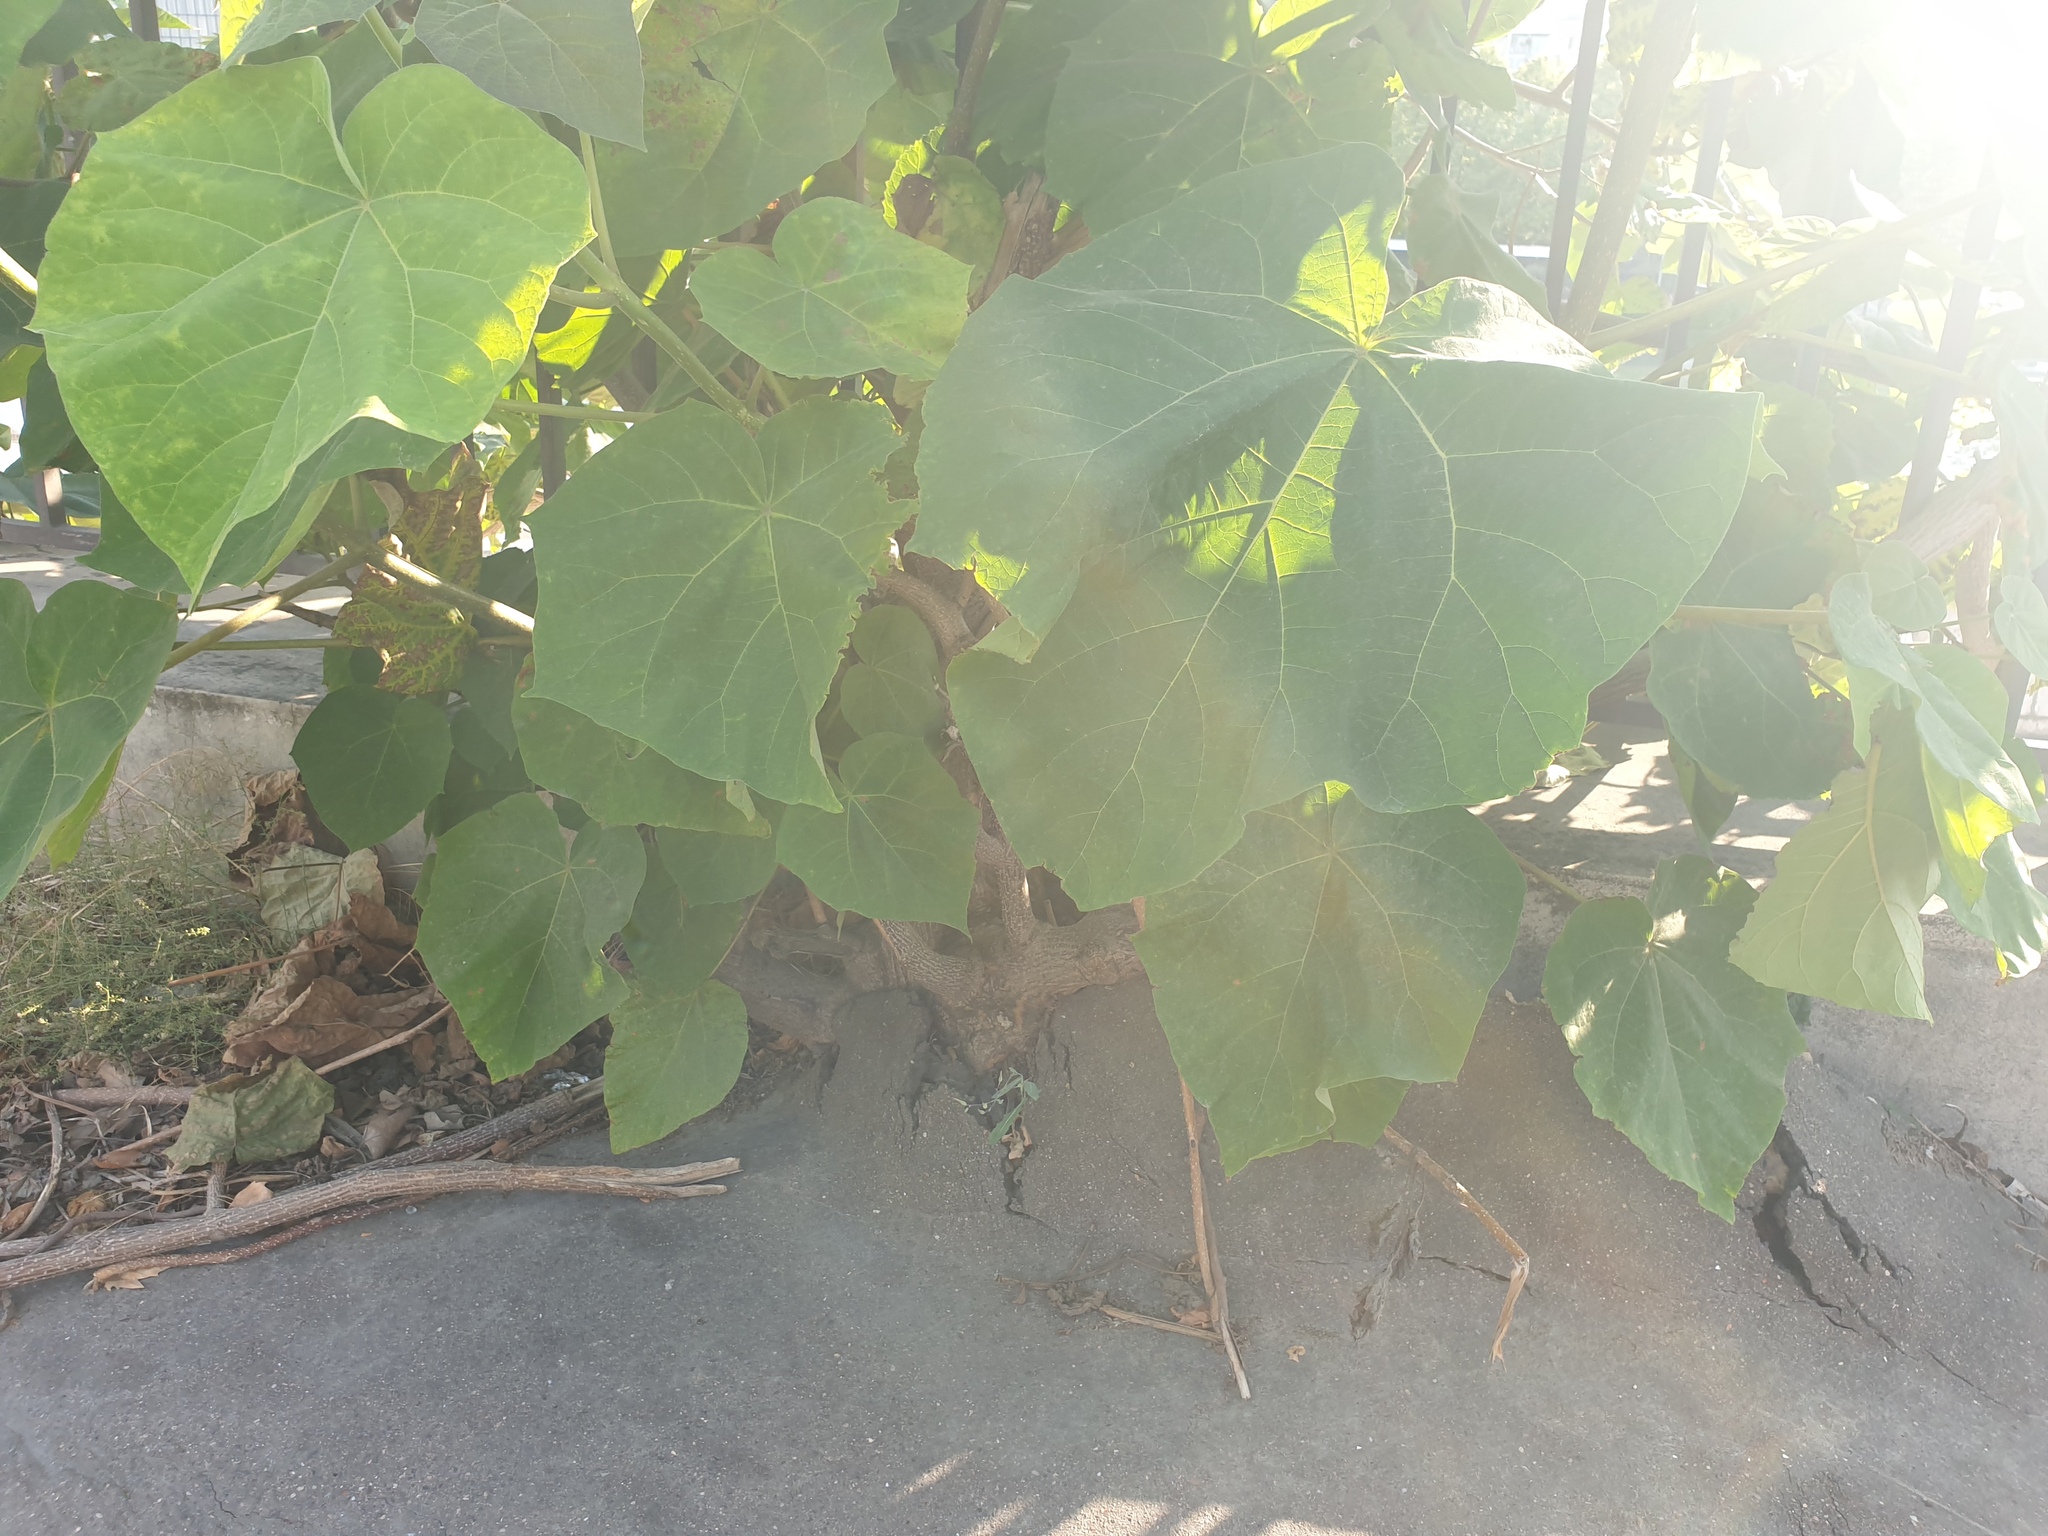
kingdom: Plantae
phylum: Tracheophyta
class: Magnoliopsida
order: Lamiales
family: Paulowniaceae
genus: Paulownia
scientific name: Paulownia tomentosa
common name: Foxglove-tree
